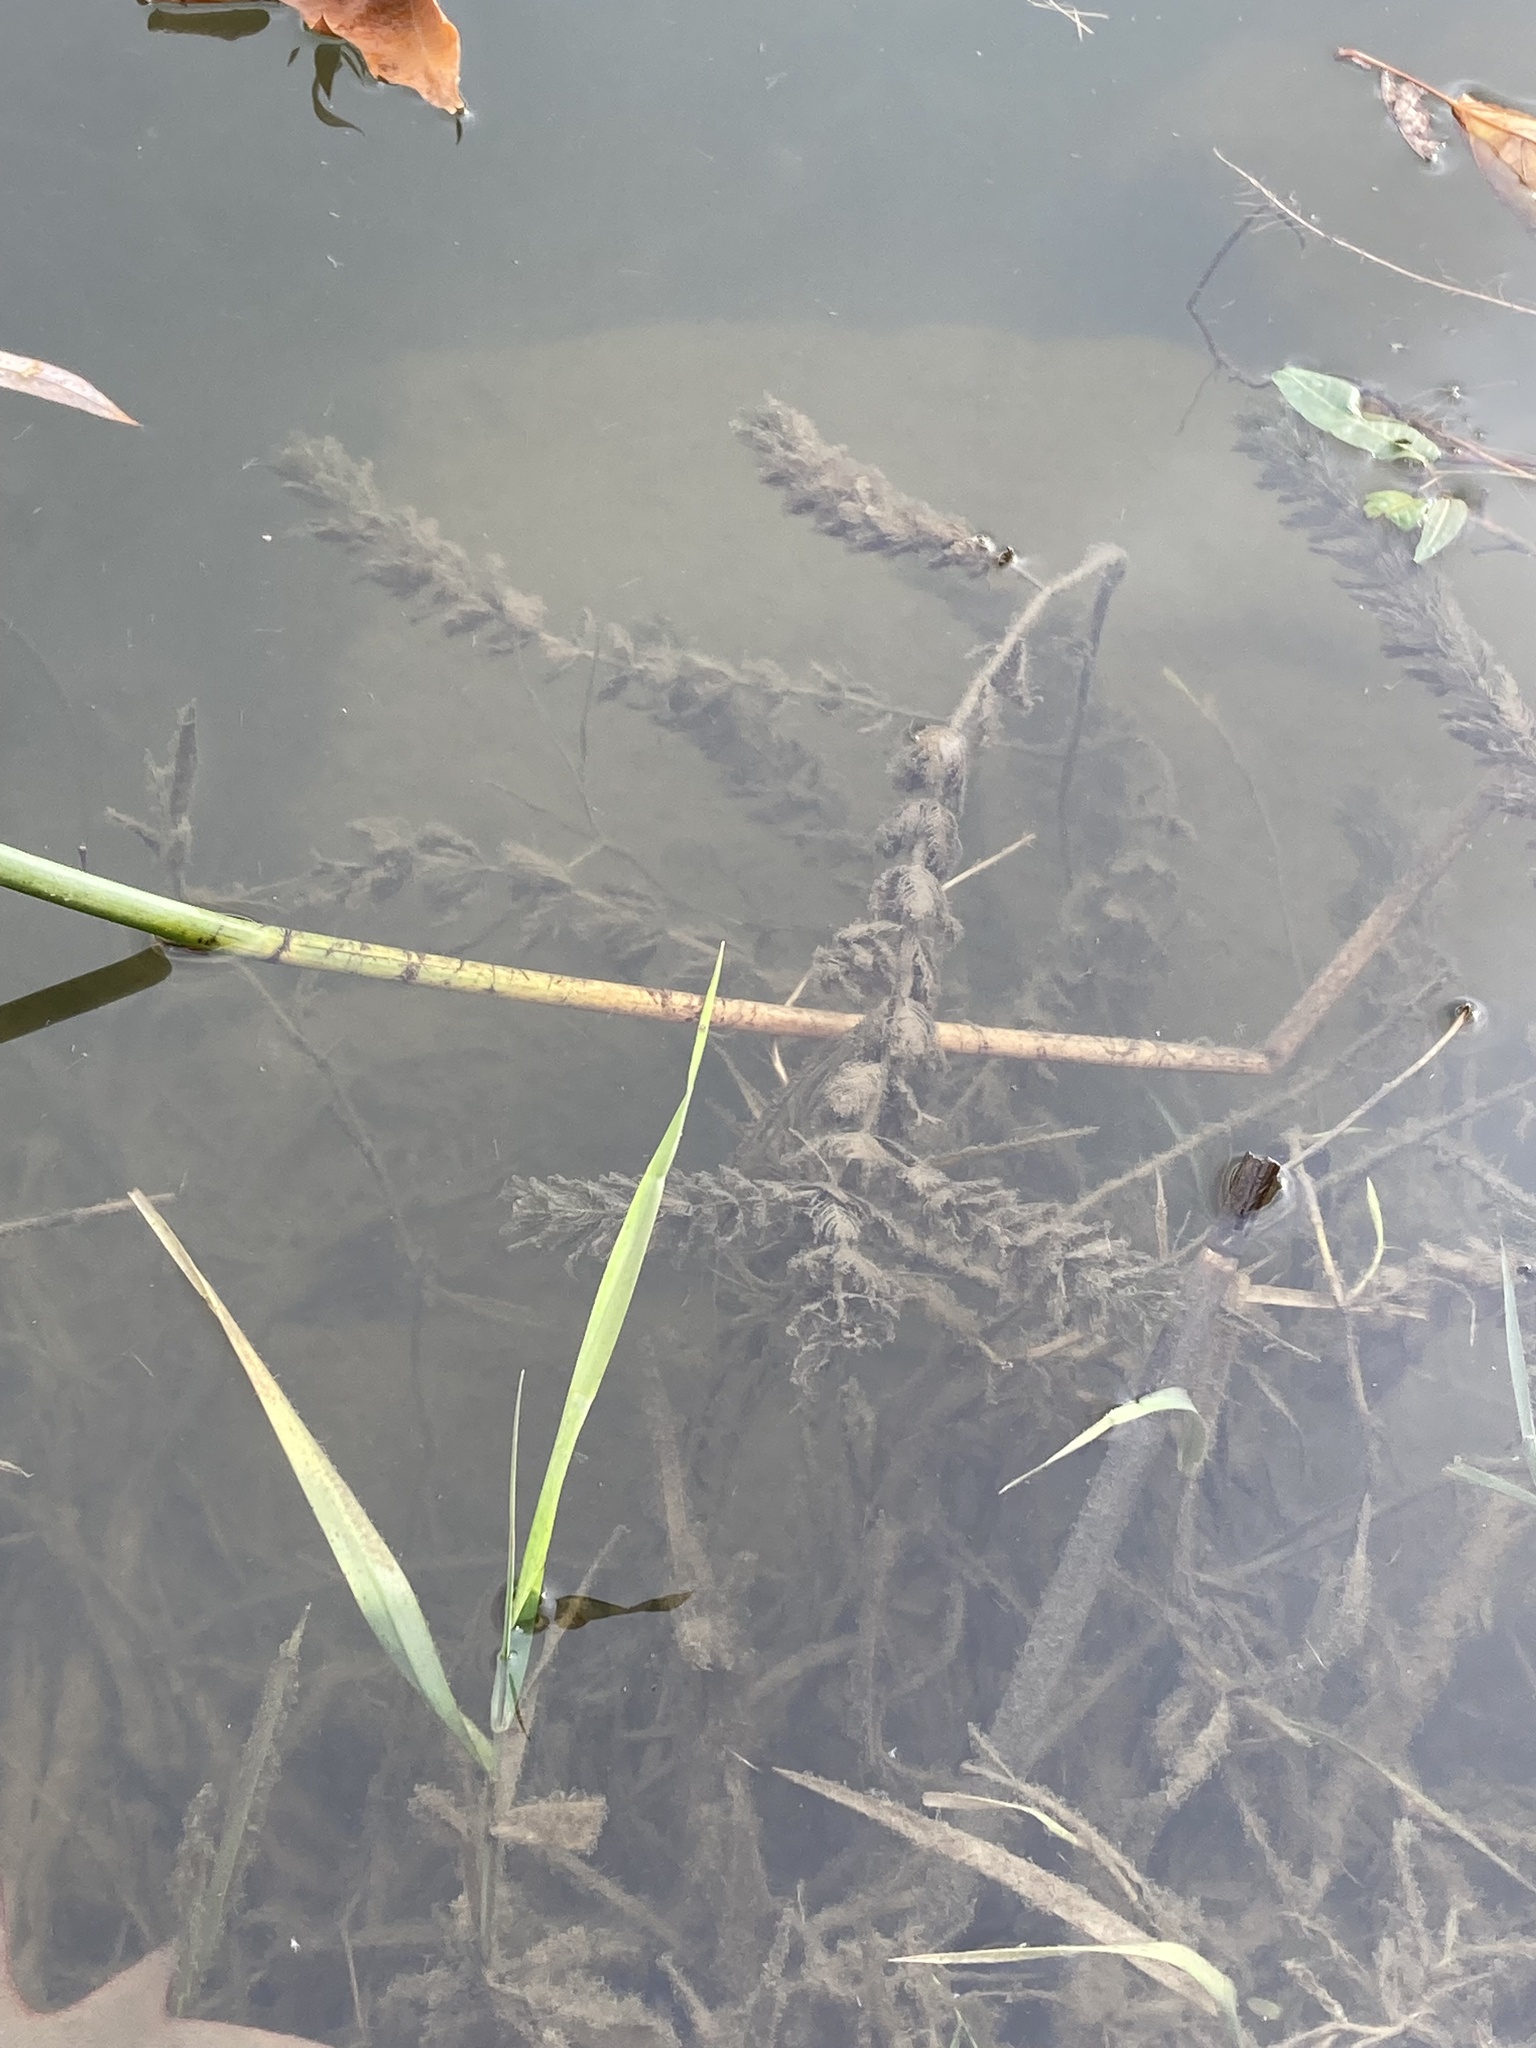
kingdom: Plantae
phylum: Tracheophyta
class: Magnoliopsida
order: Saxifragales
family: Haloragaceae
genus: Myriophyllum
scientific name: Myriophyllum spicatum
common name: Spiked water-milfoil
